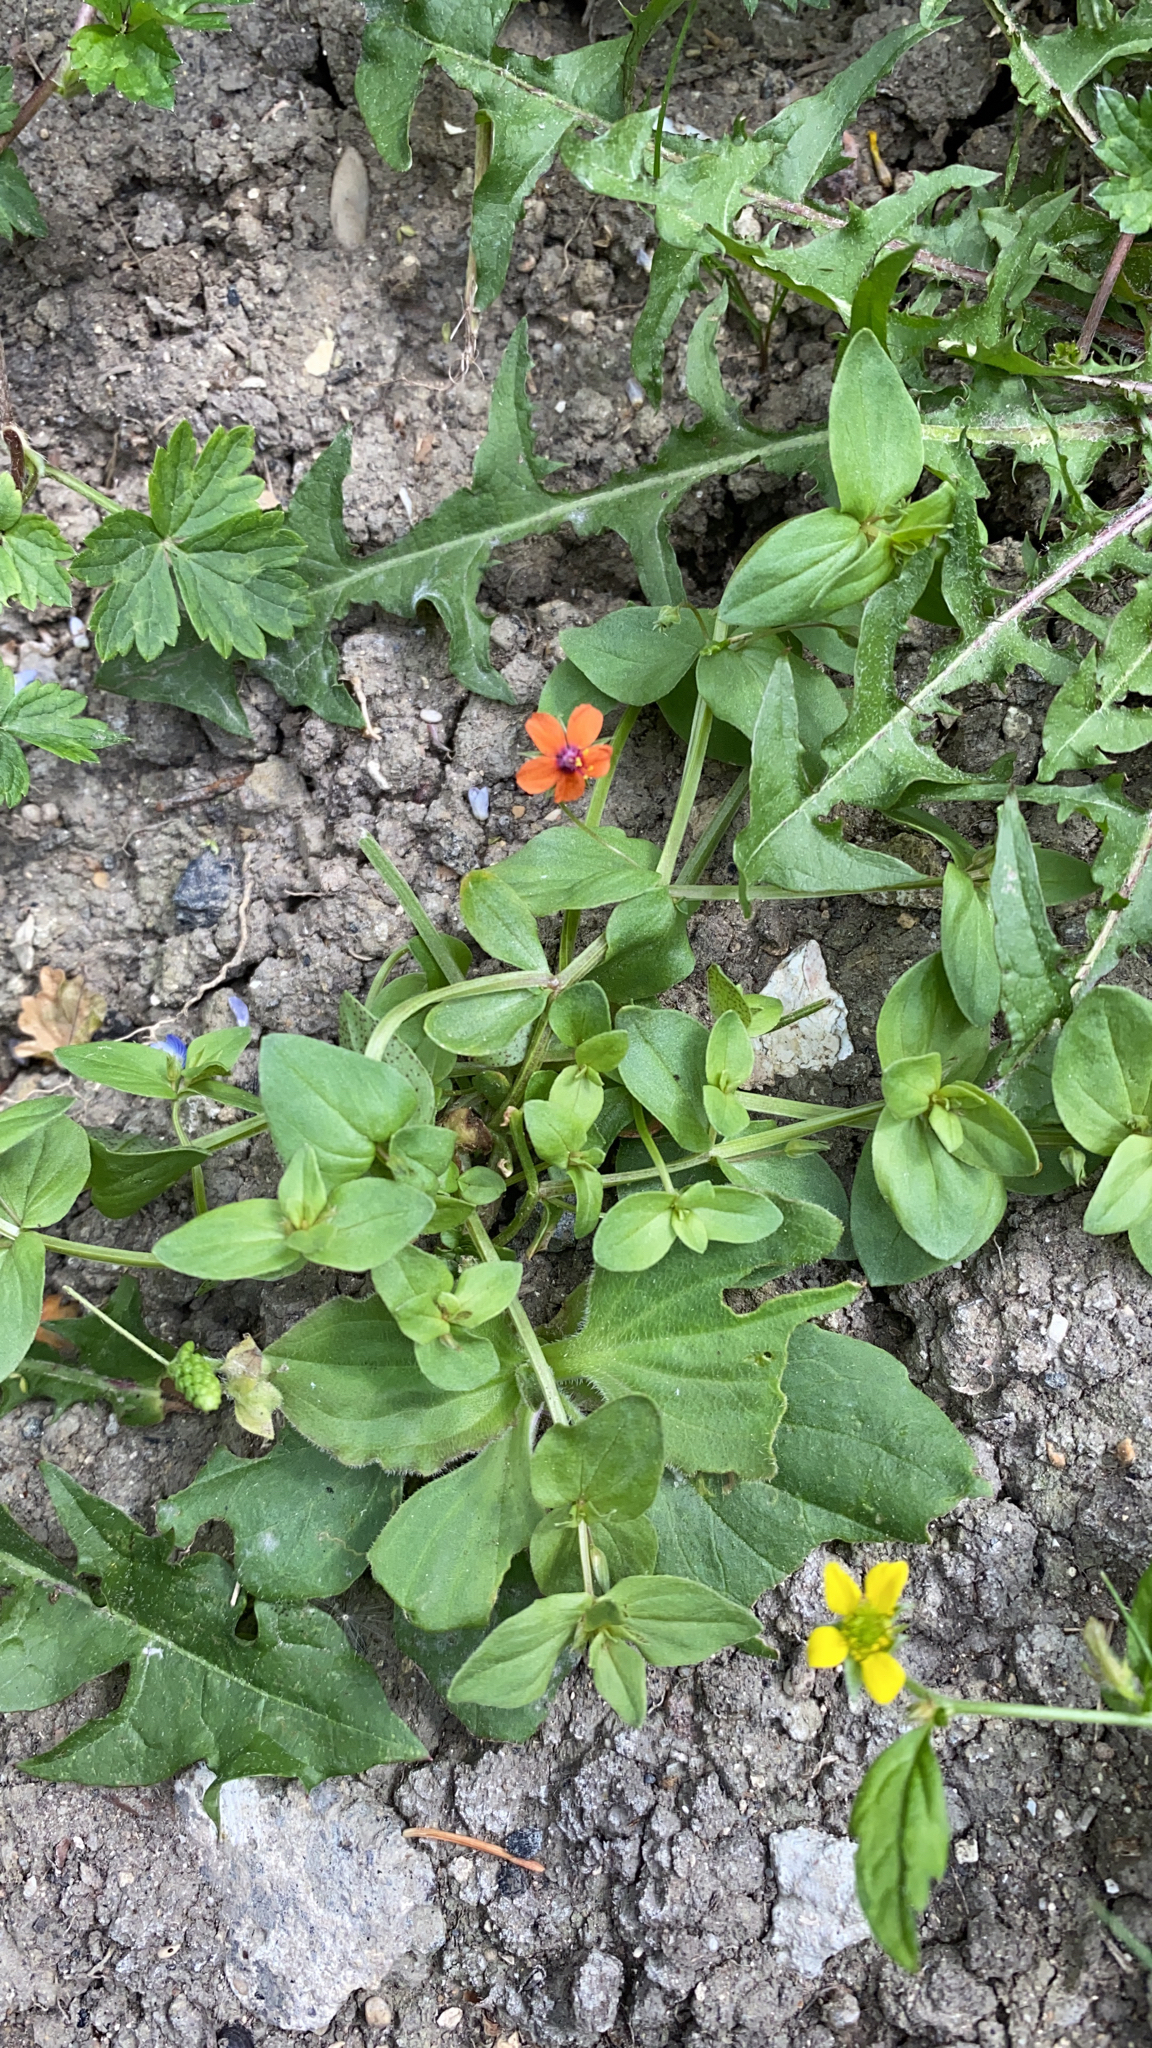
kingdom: Plantae
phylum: Tracheophyta
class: Magnoliopsida
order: Ericales
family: Primulaceae
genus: Lysimachia
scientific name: Lysimachia arvensis
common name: Scarlet pimpernel
